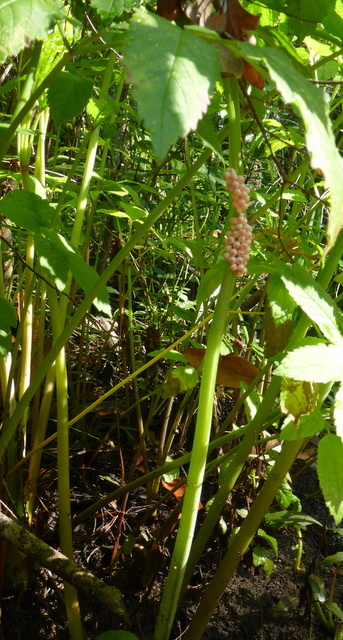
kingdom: Animalia
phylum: Mollusca
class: Gastropoda
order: Architaenioglossa
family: Ampullariidae
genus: Pomacea
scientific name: Pomacea paludosa
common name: Florida applesnail
